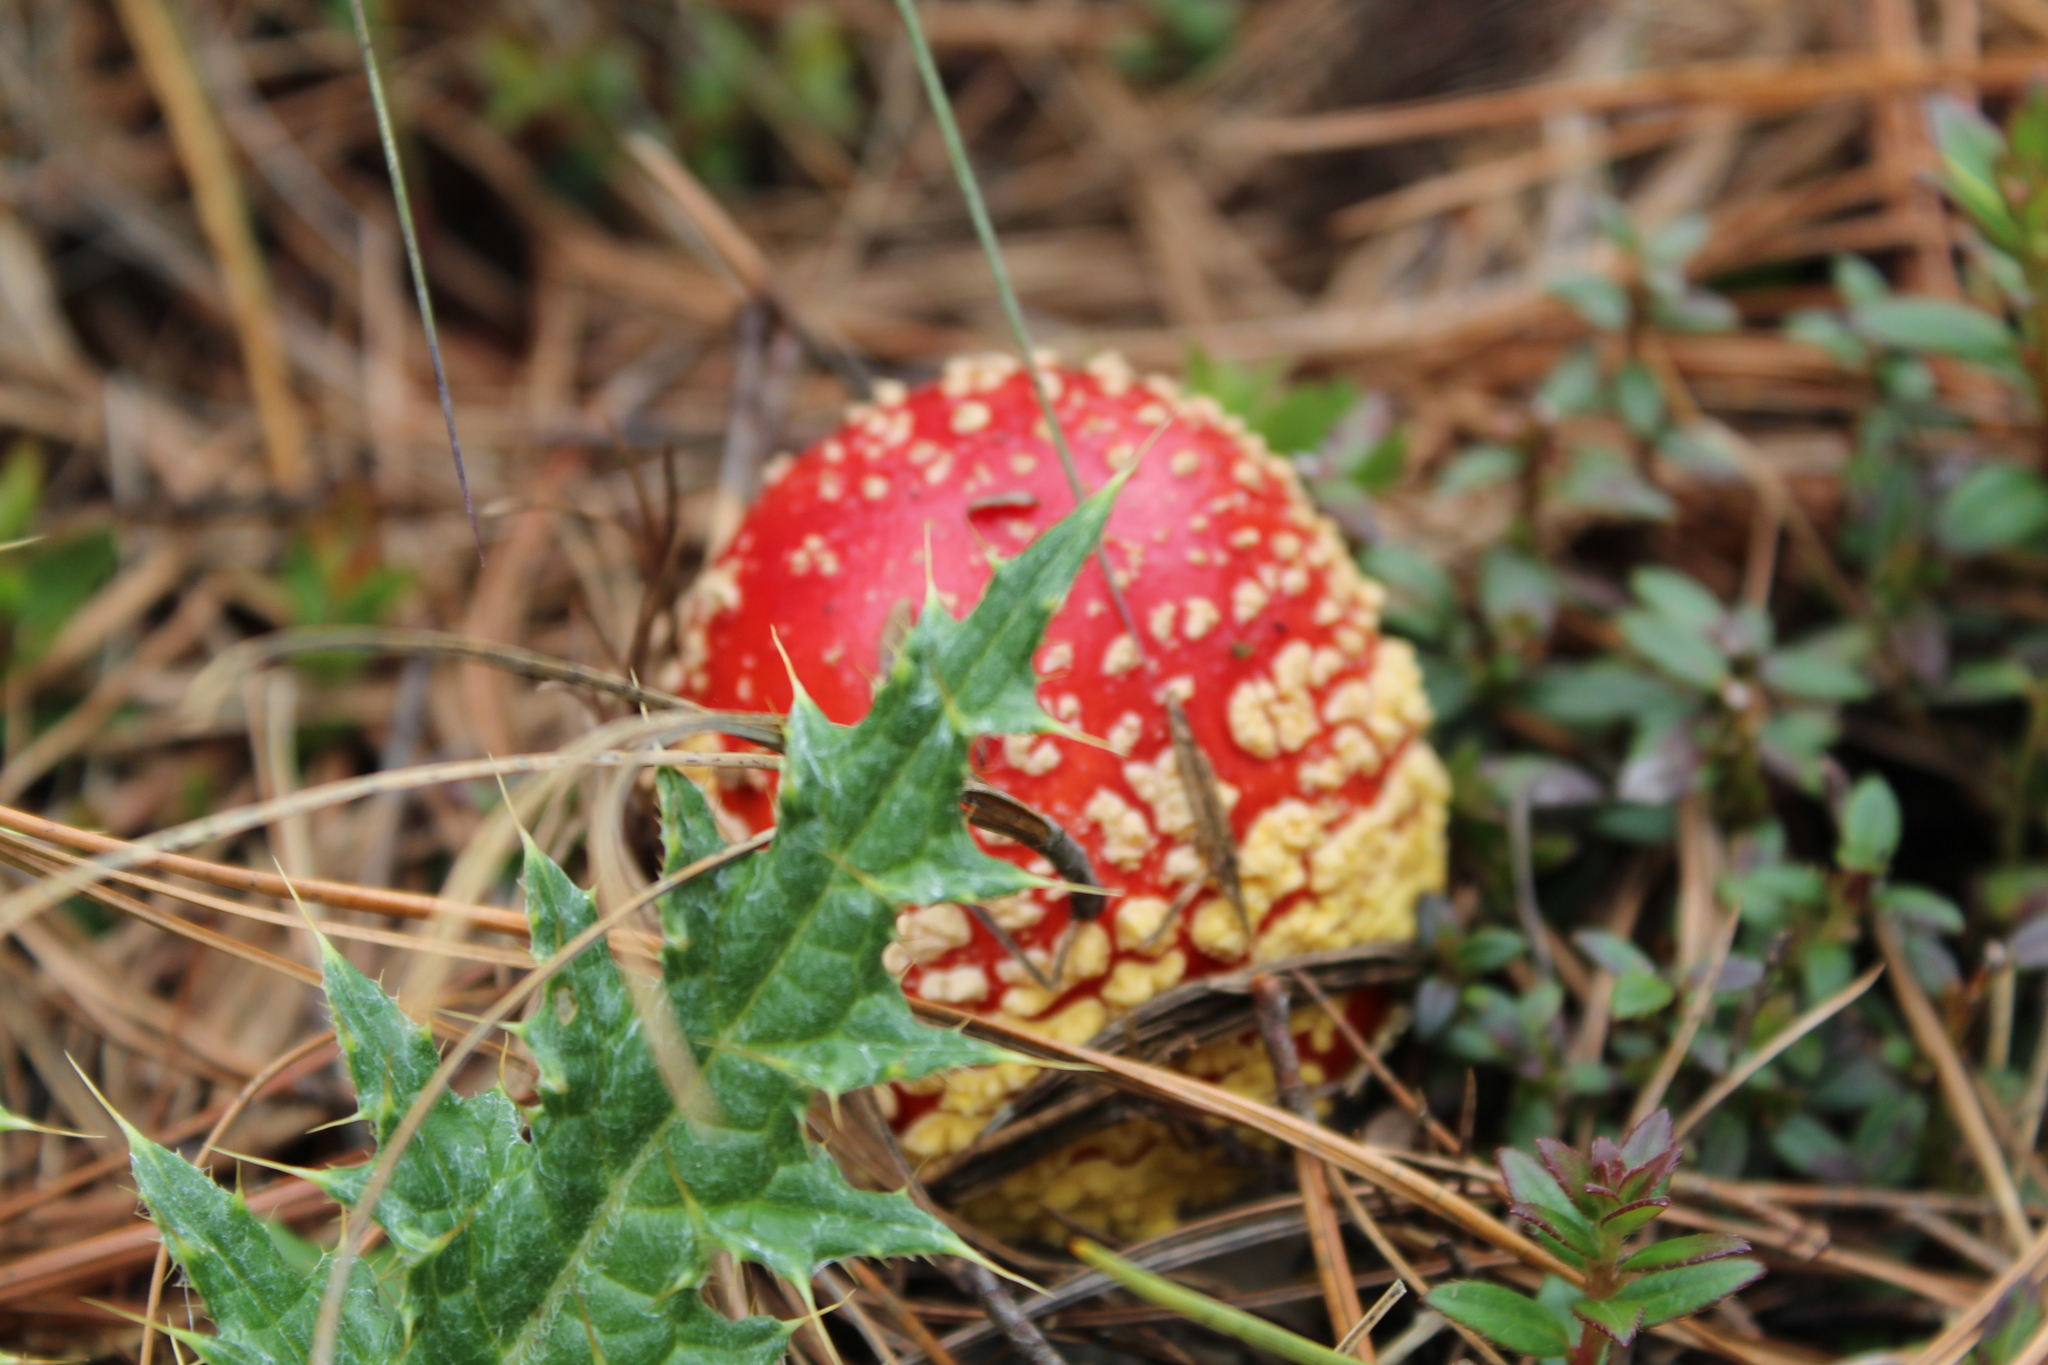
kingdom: Fungi
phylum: Basidiomycota
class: Agaricomycetes
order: Agaricales
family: Amanitaceae
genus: Amanita
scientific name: Amanita muscaria
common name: Fly agaric
